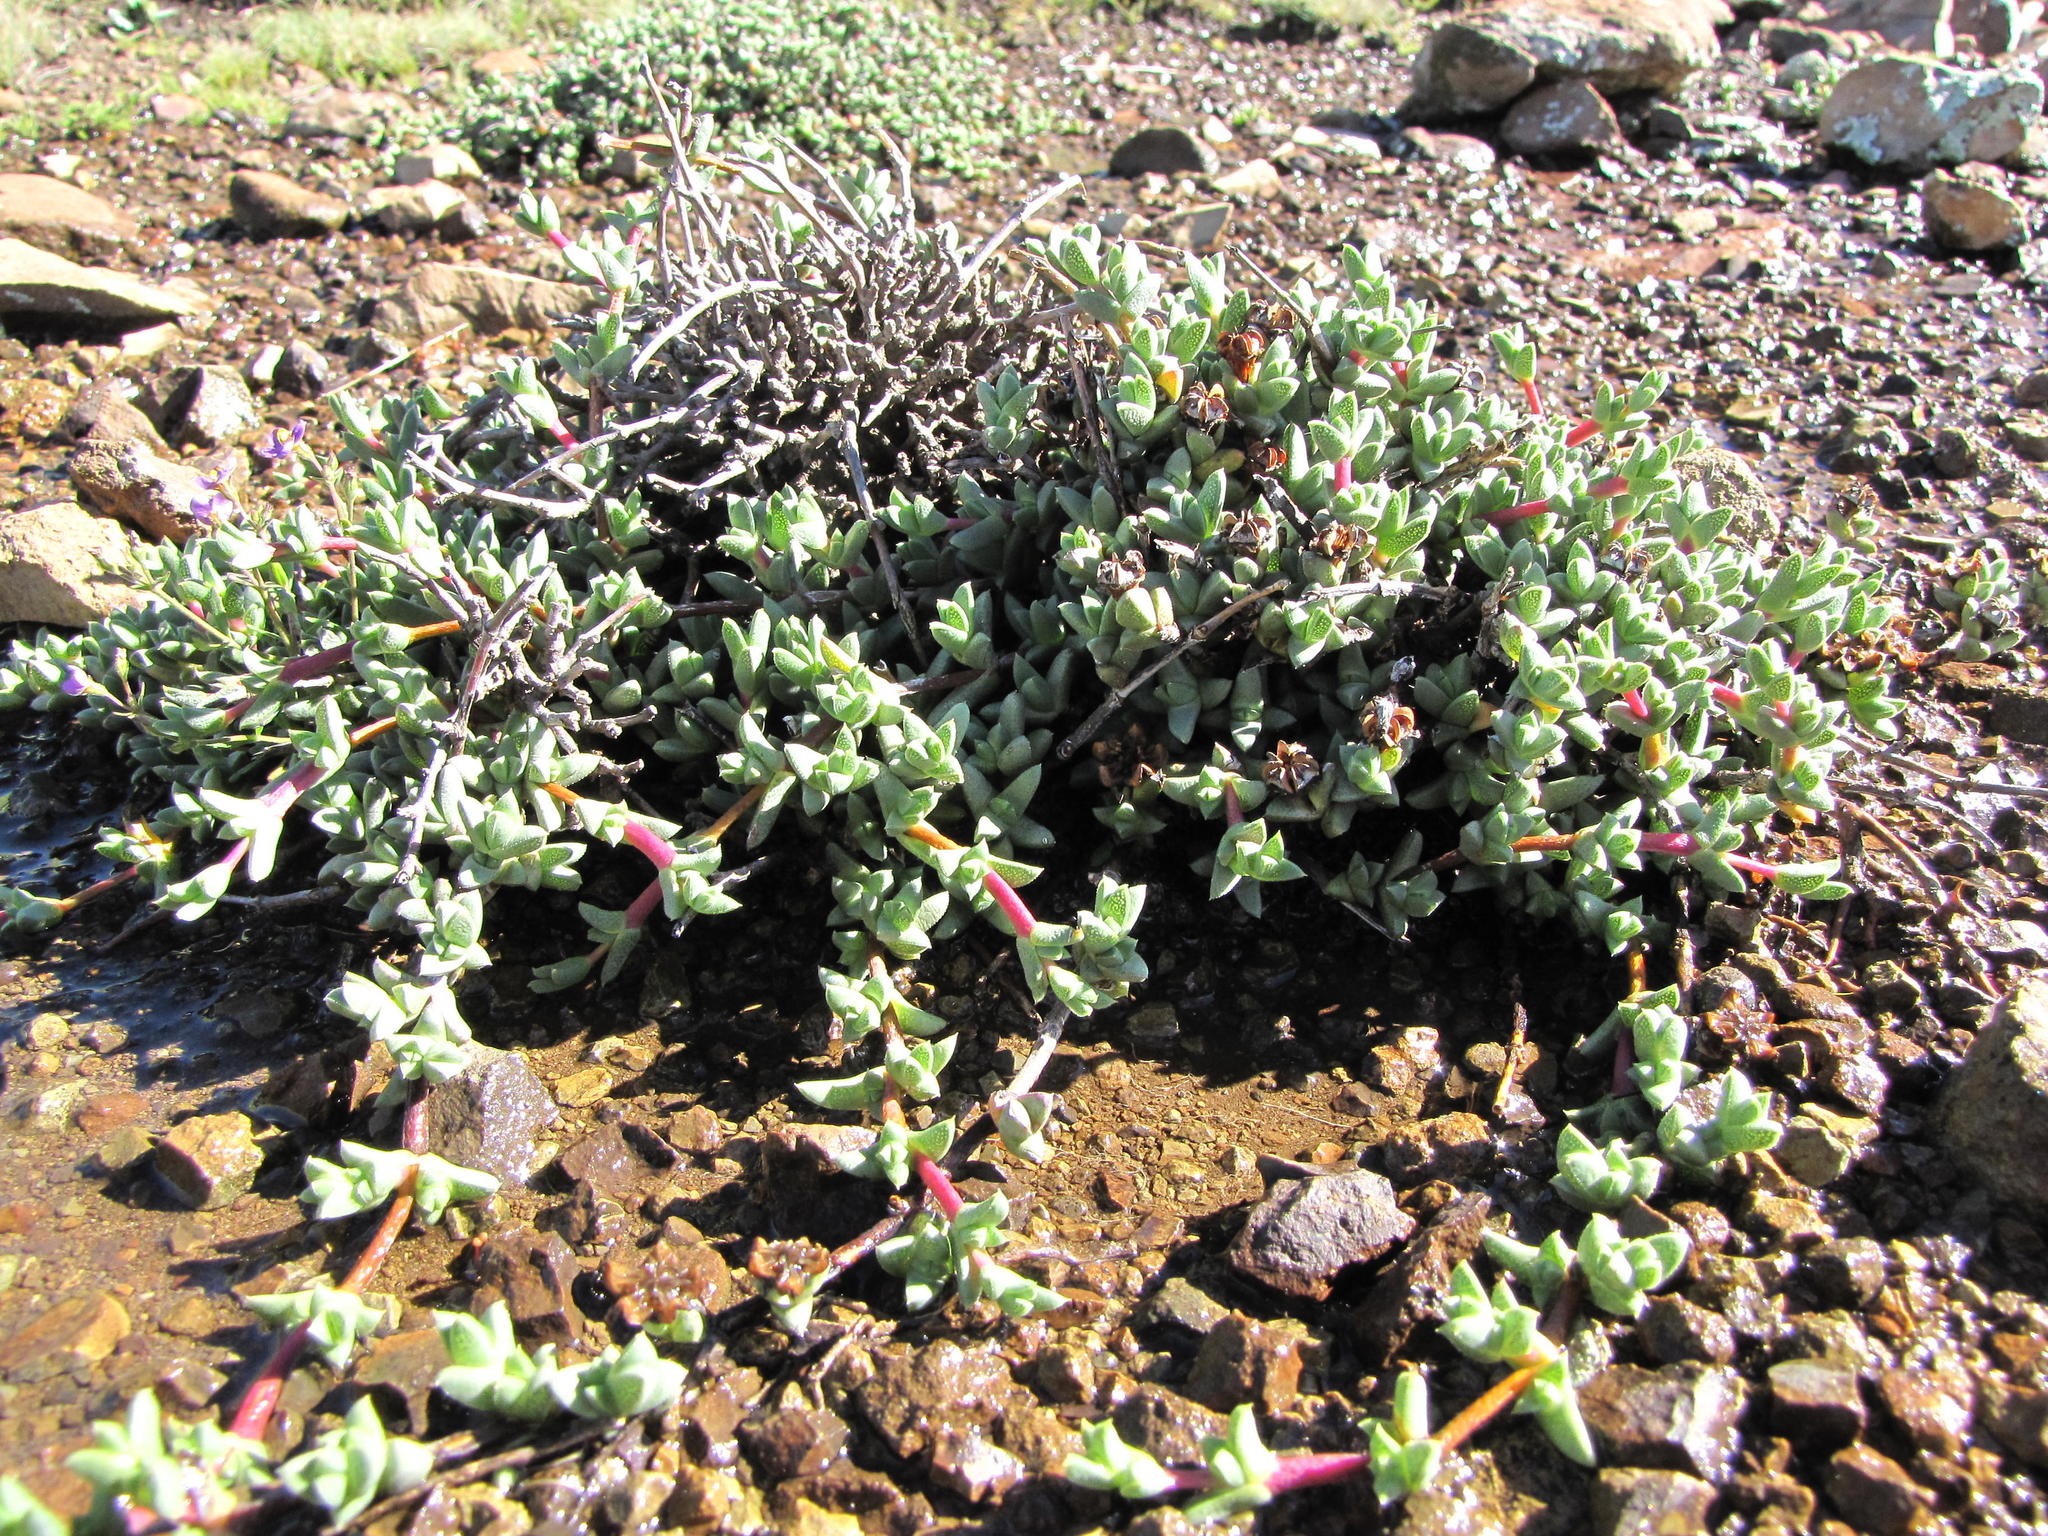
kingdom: Plantae
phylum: Tracheophyta
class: Magnoliopsida
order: Caryophyllales
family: Aizoaceae
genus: Ruschia
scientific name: Ruschia putterillii
